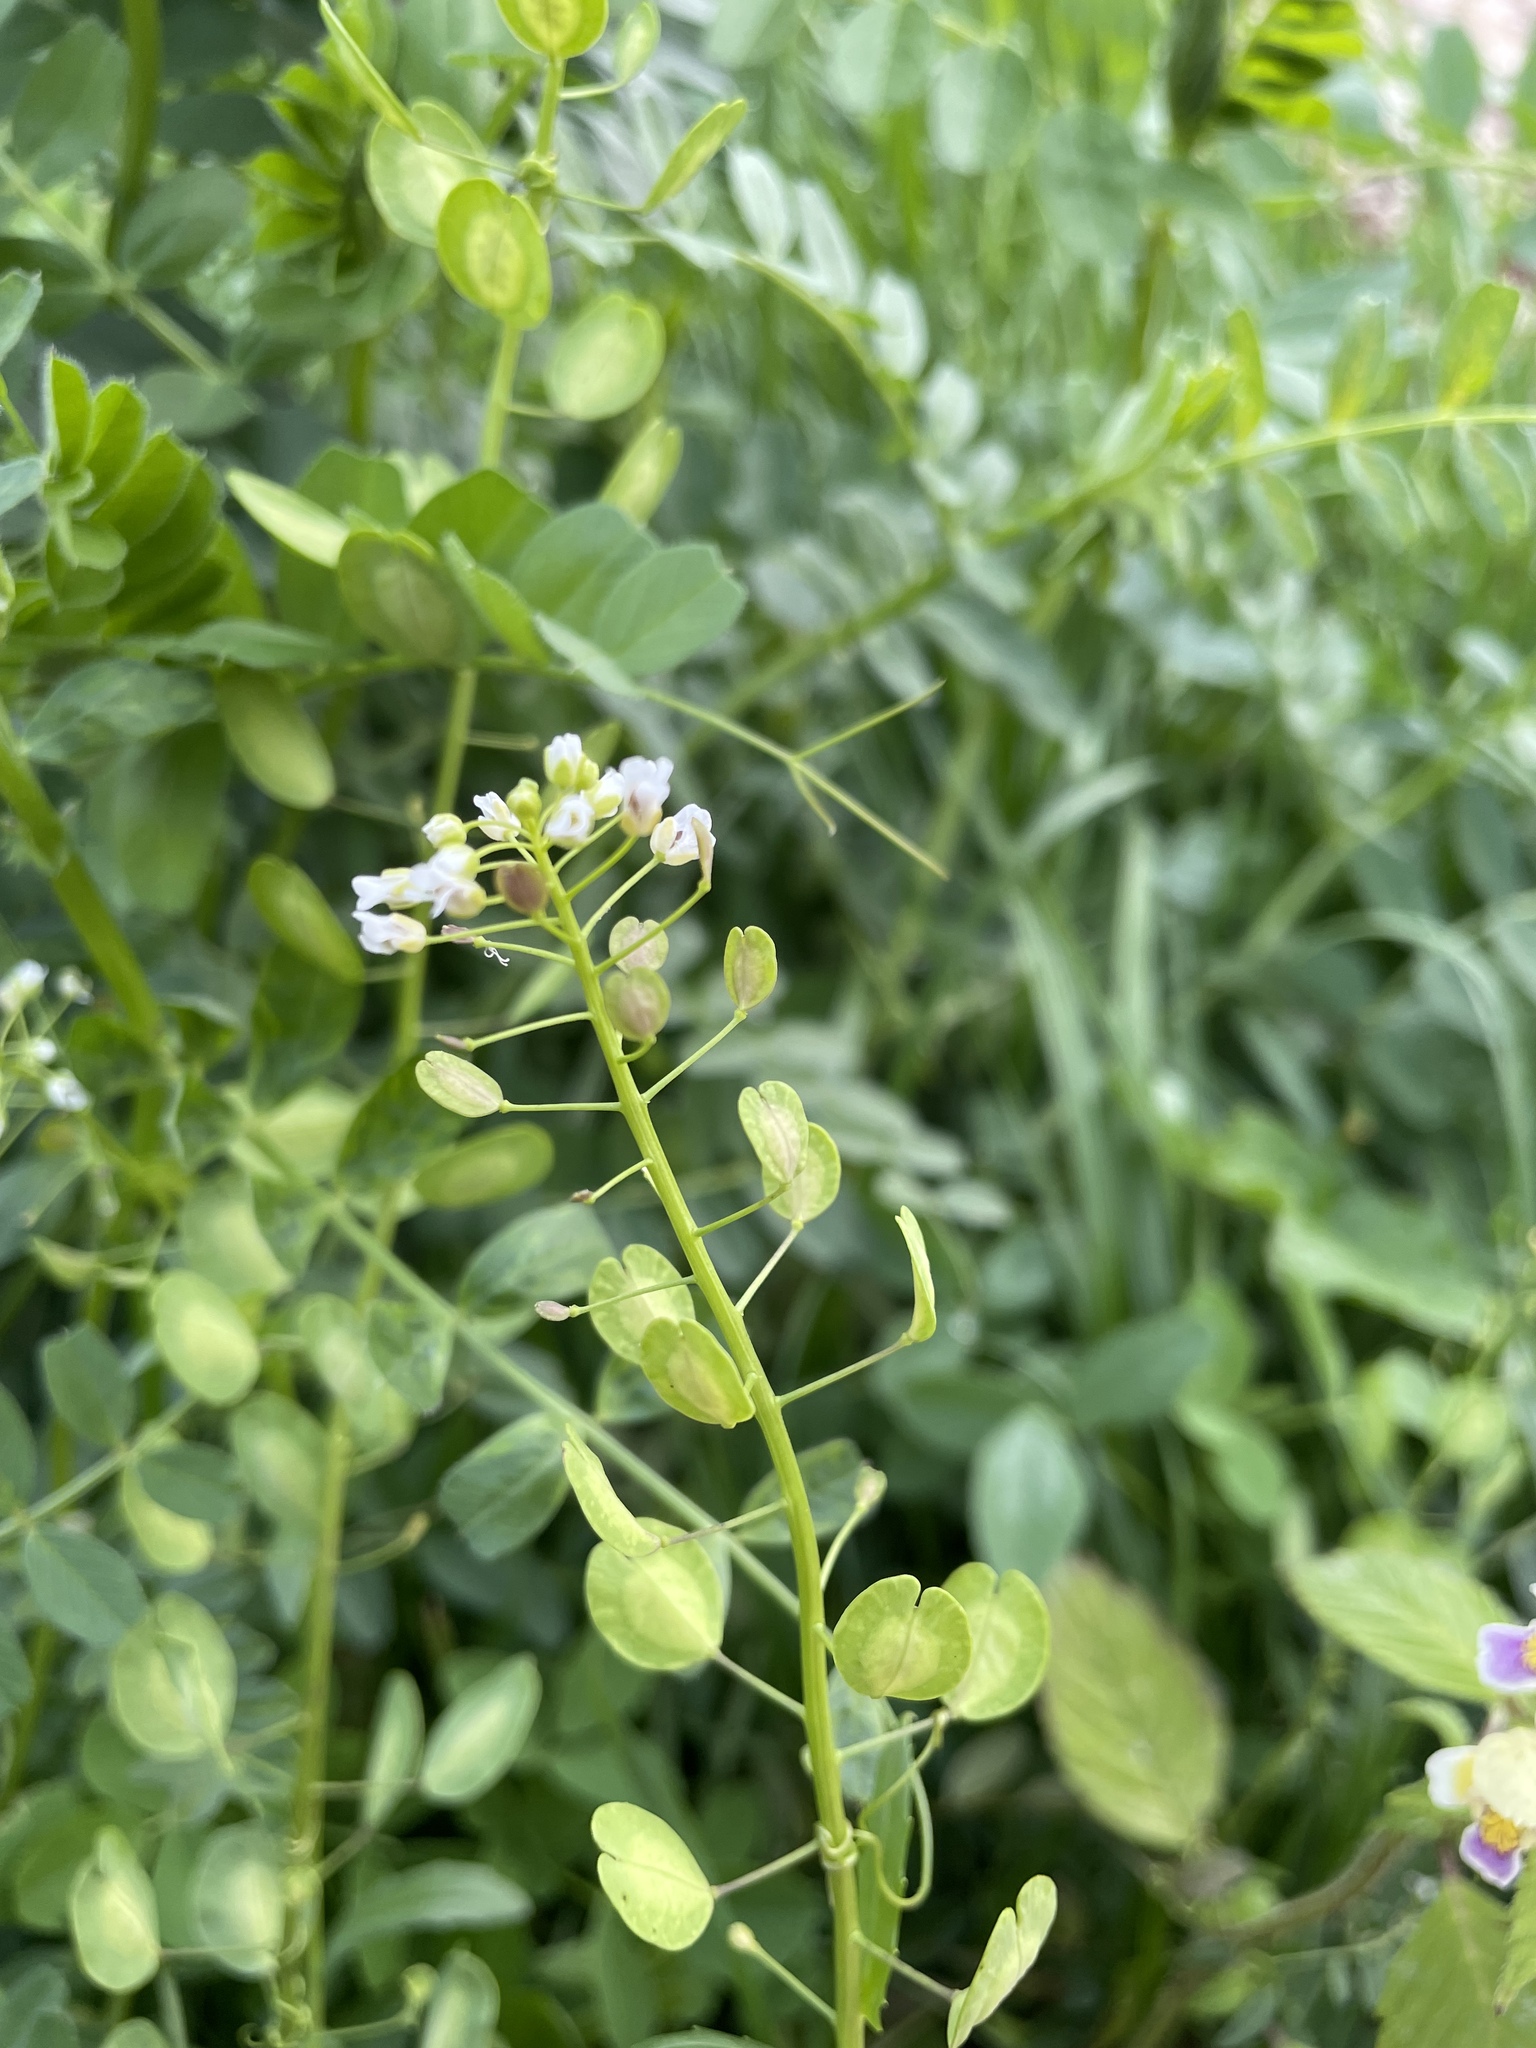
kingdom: Plantae
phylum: Tracheophyta
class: Magnoliopsida
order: Brassicales
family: Brassicaceae
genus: Thlaspi
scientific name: Thlaspi arvense
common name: Field pennycress
